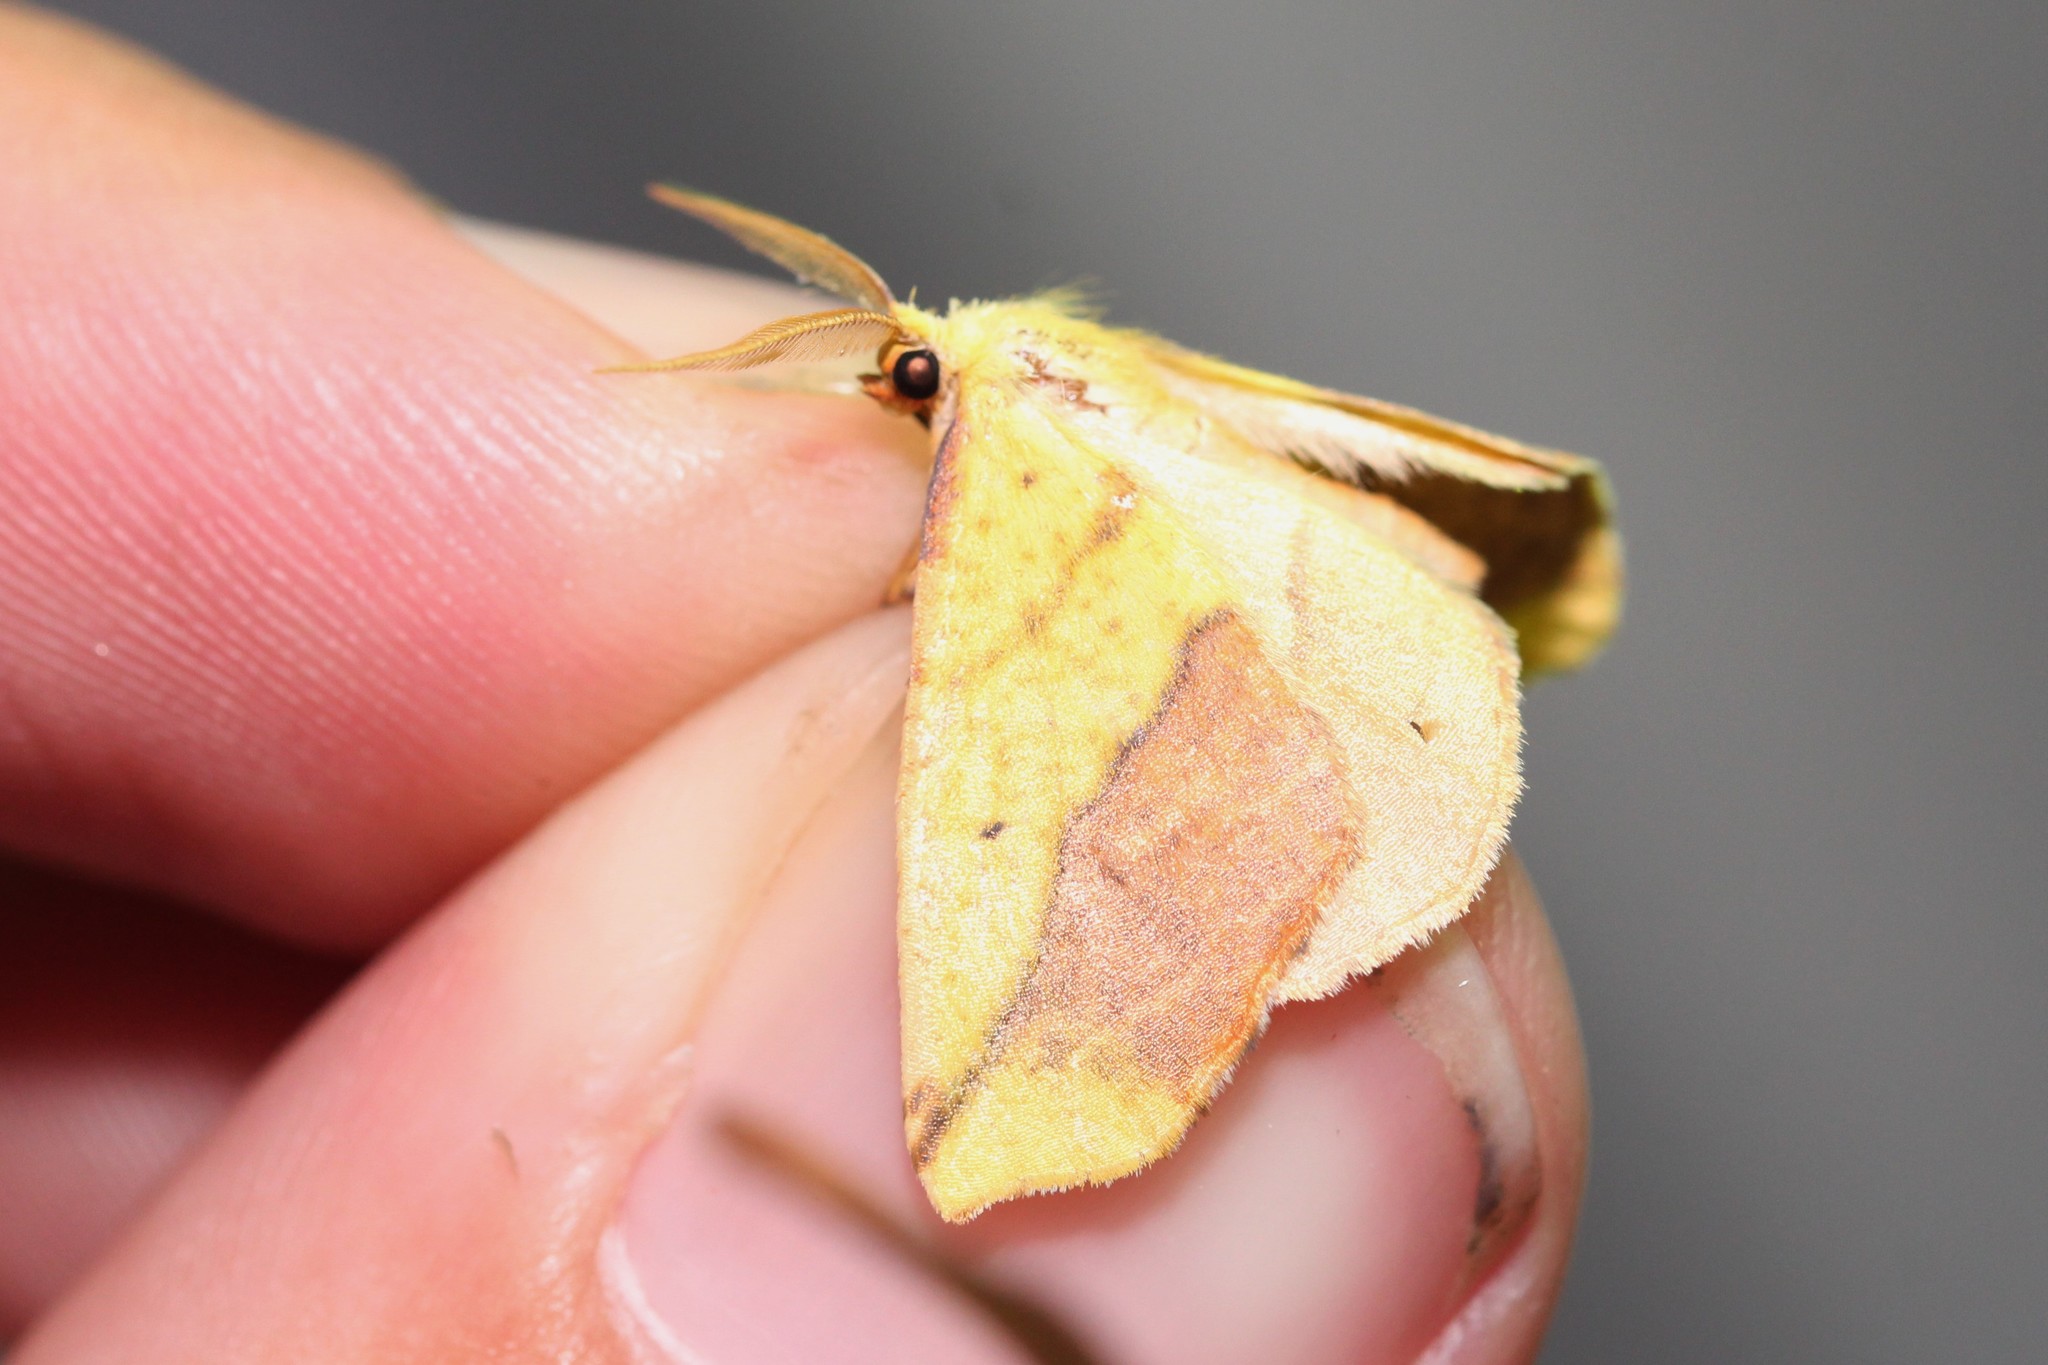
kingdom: Animalia
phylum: Arthropoda
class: Insecta
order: Lepidoptera
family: Geometridae
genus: Sicya
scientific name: Sicya macularia
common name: Sharp-lined yellow
